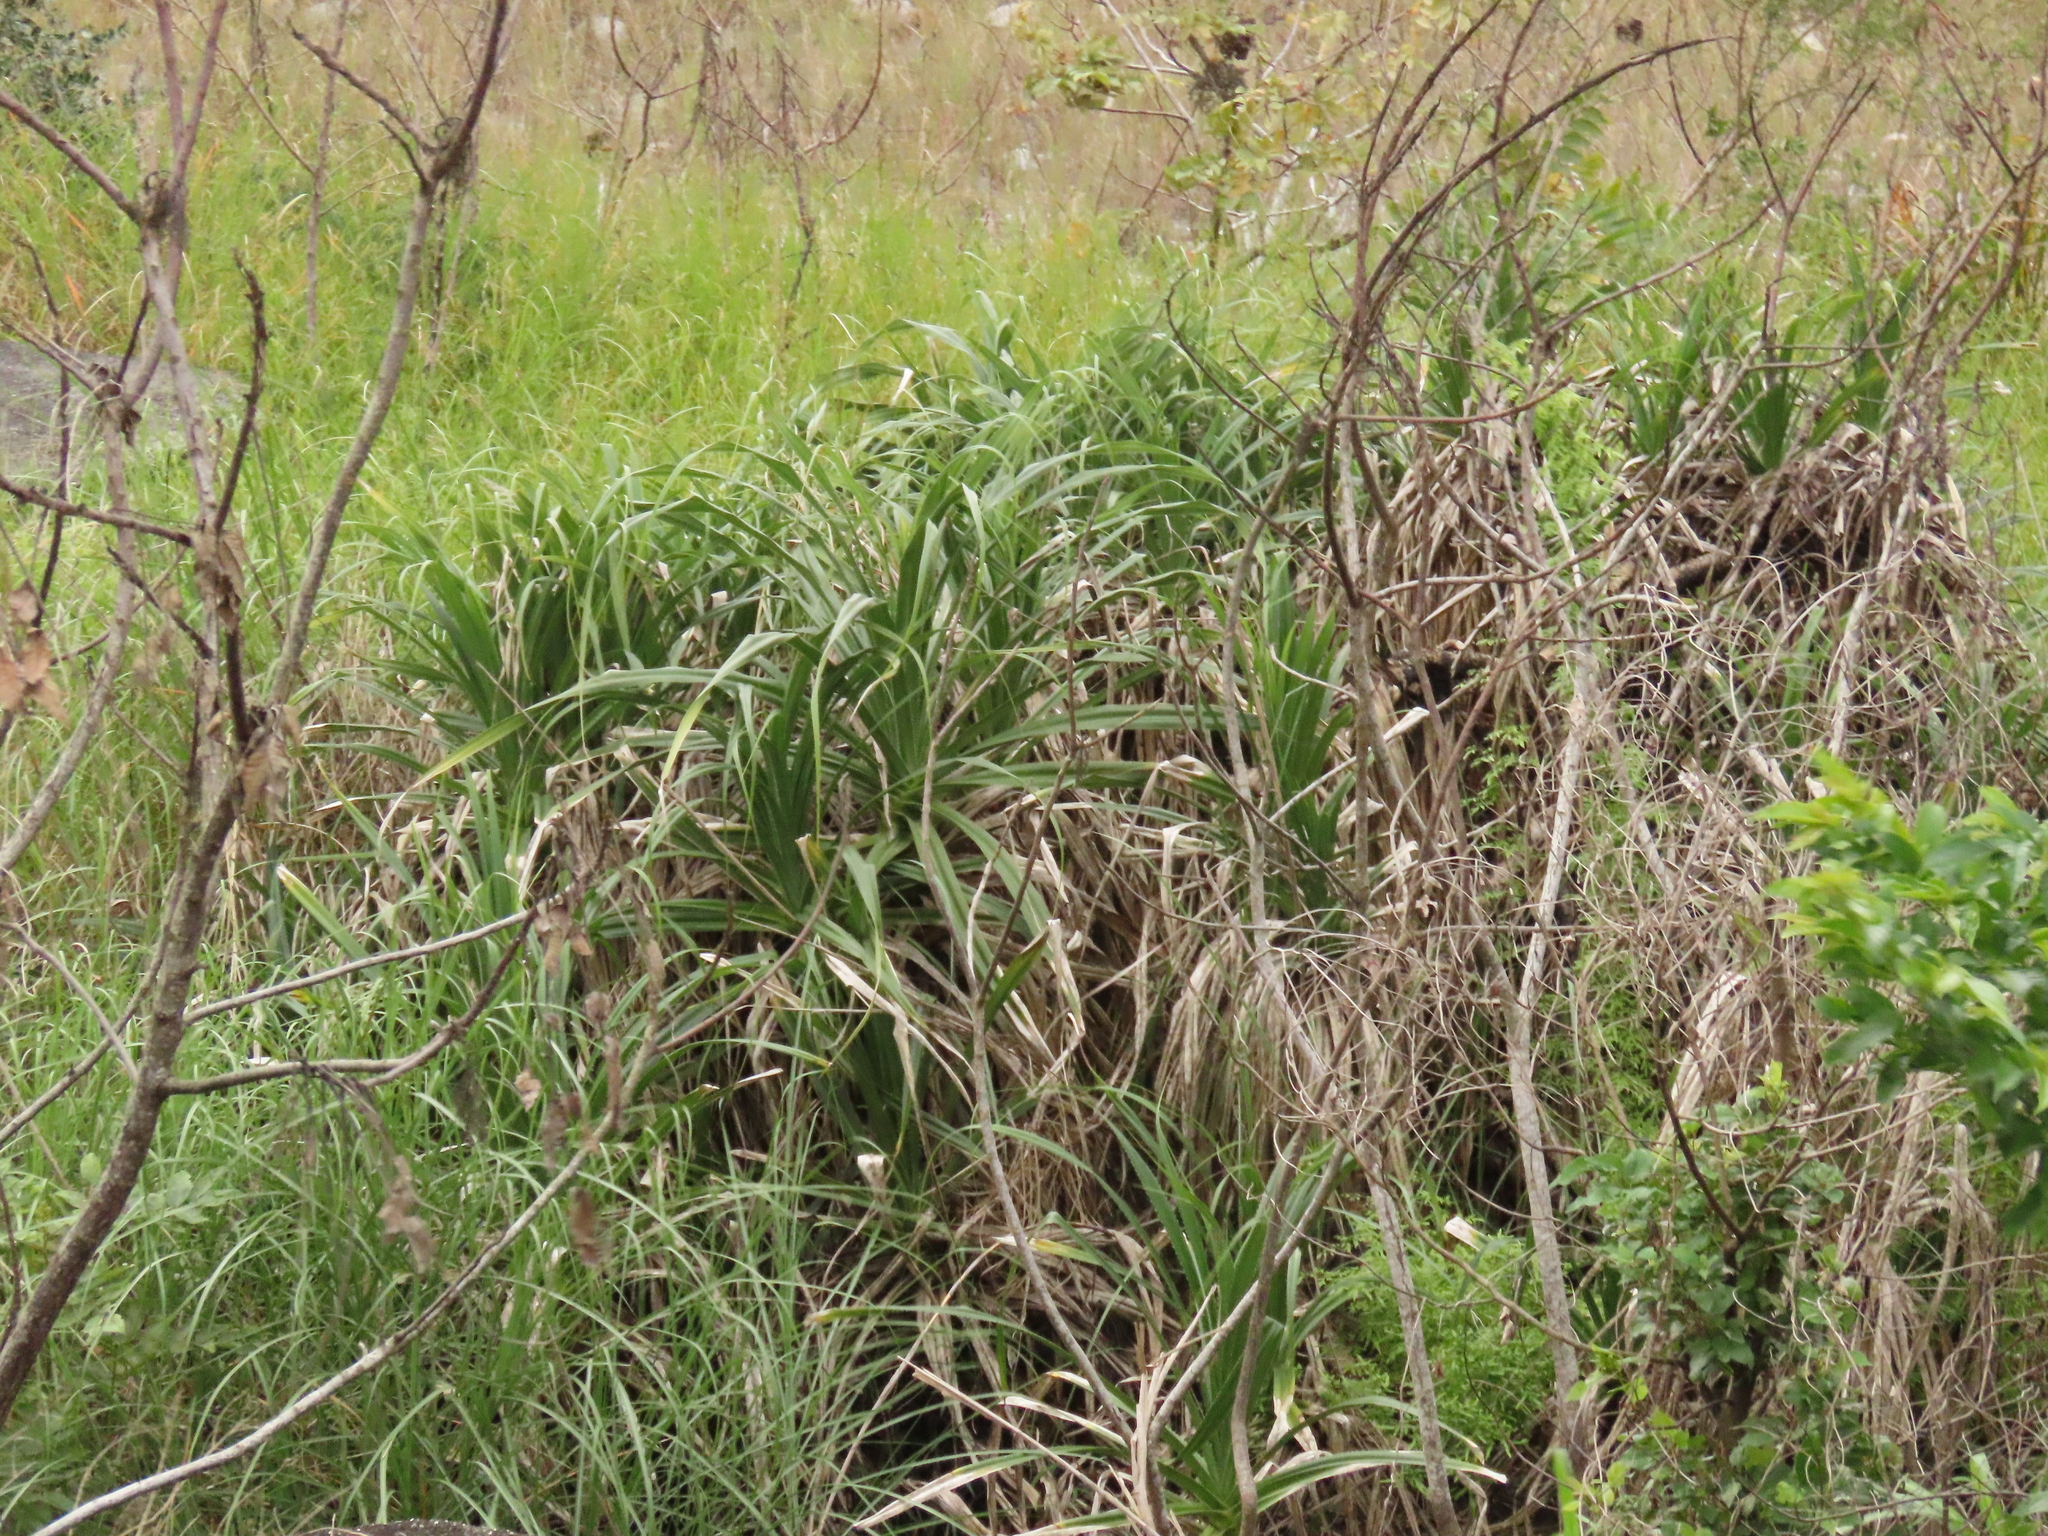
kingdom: Plantae
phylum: Tracheophyta
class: Liliopsida
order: Pandanales
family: Pandanaceae
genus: Pandanus
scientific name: Pandanus odorifer
